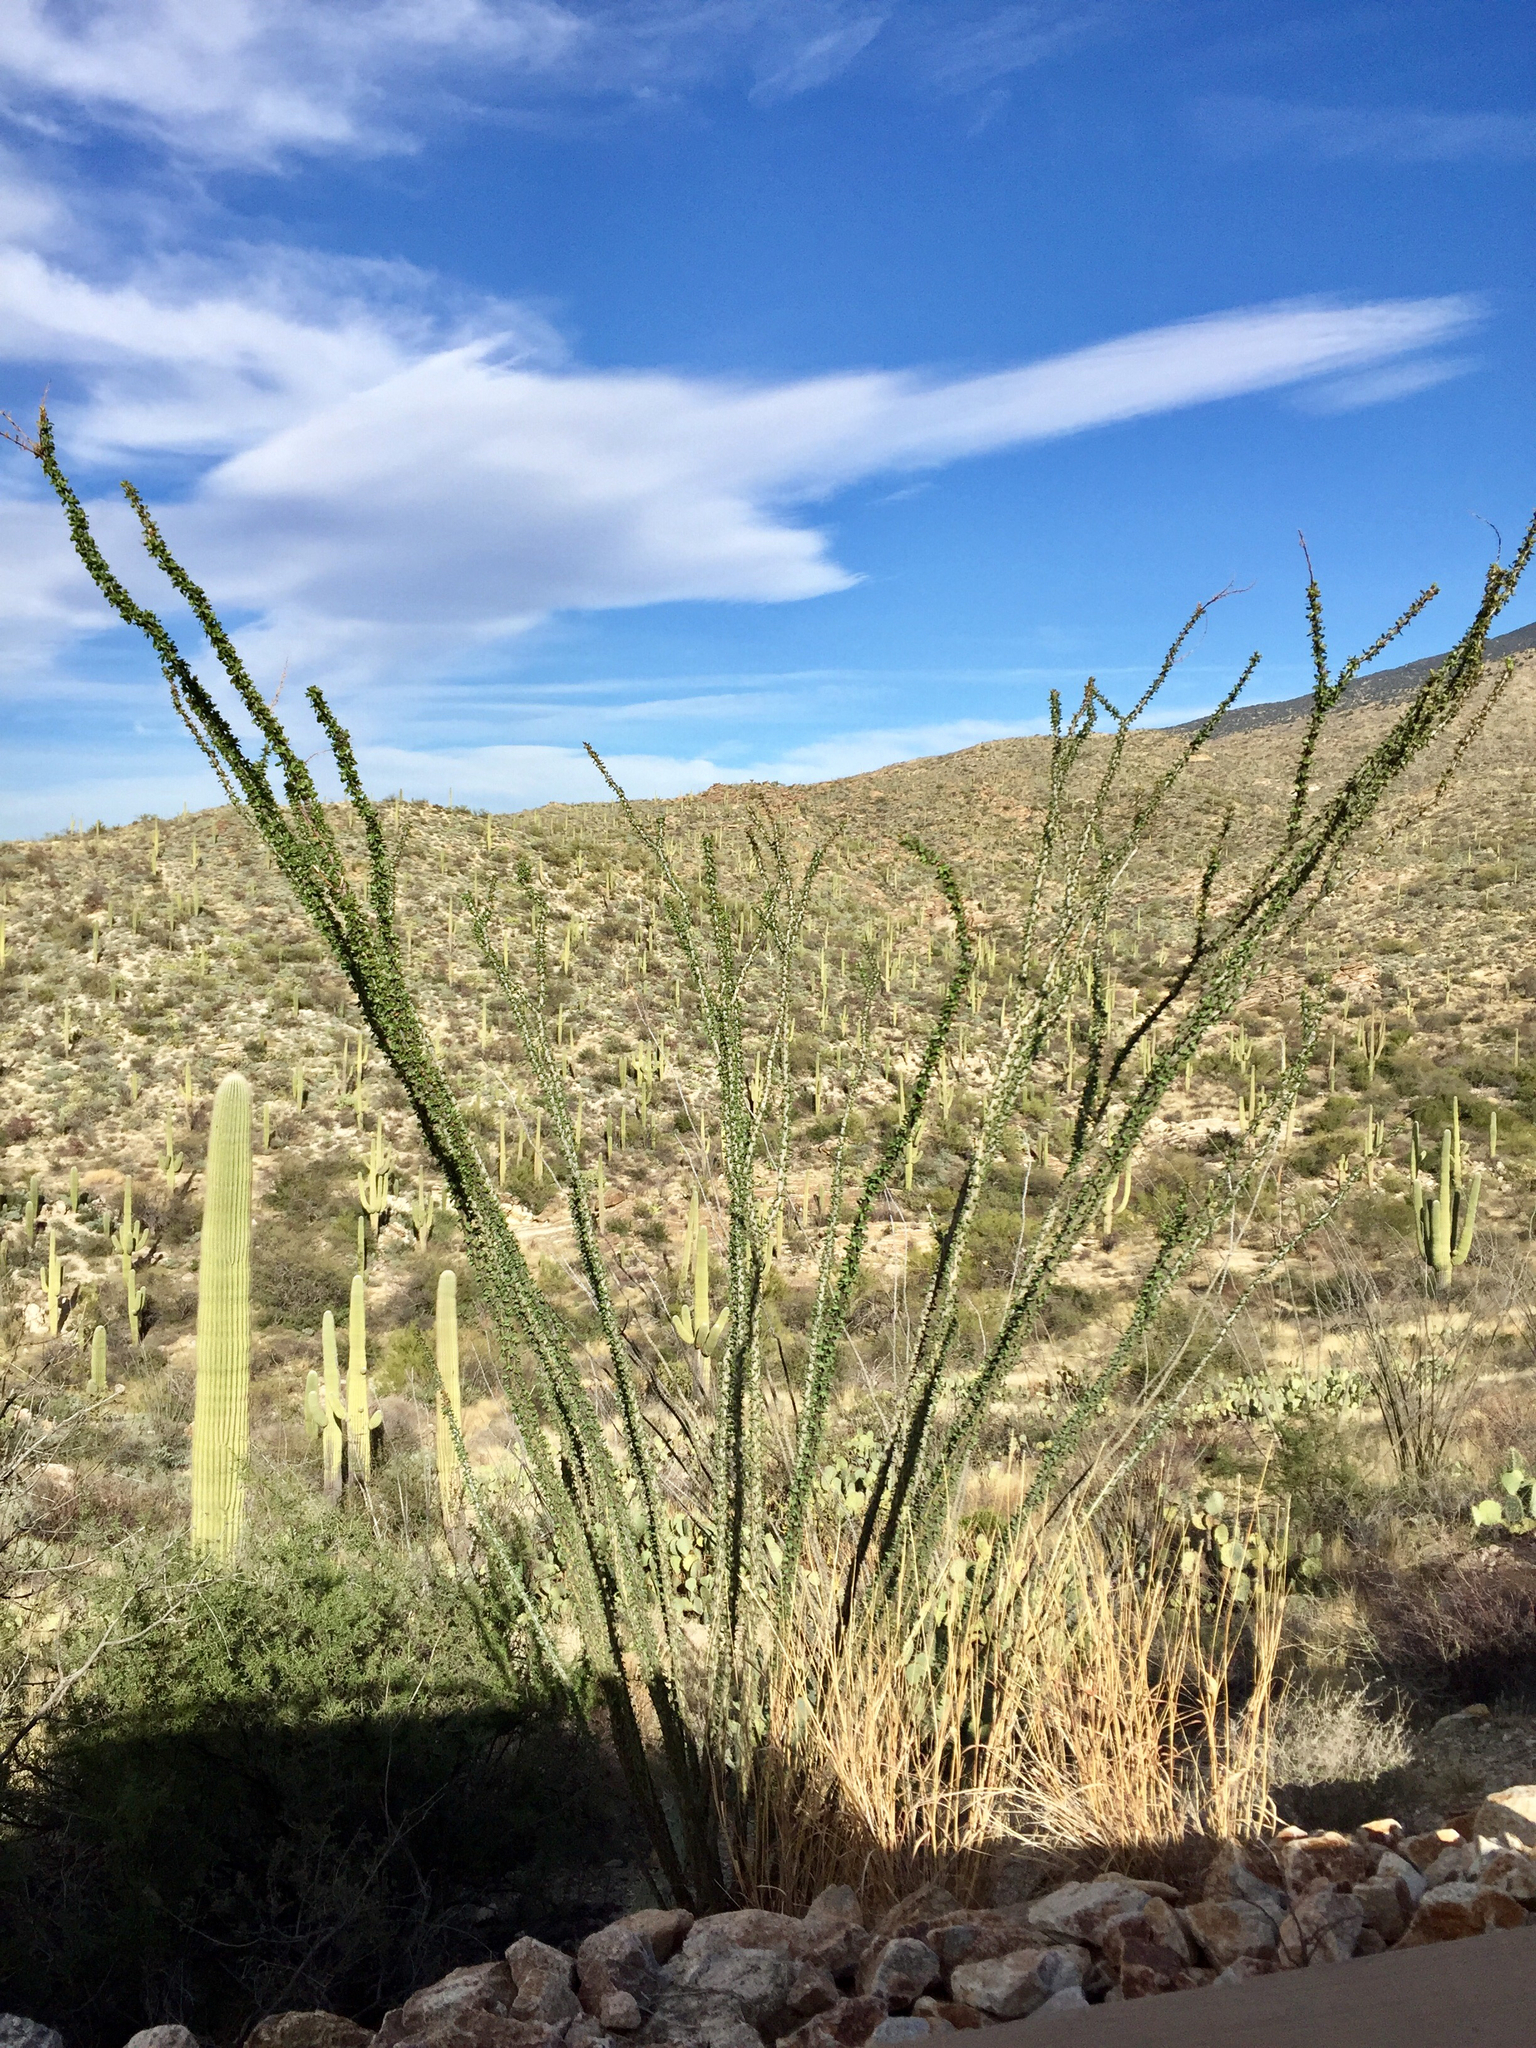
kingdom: Plantae
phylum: Tracheophyta
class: Magnoliopsida
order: Ericales
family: Fouquieriaceae
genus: Fouquieria
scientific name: Fouquieria splendens
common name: Vine-cactus
